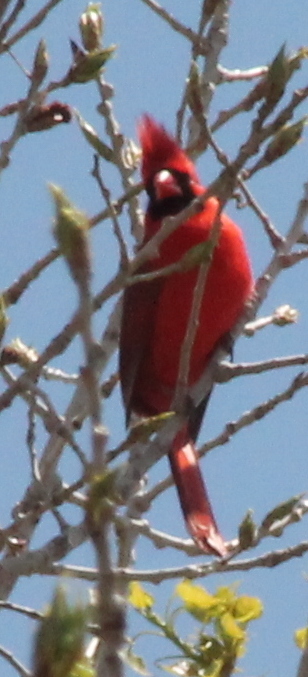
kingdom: Animalia
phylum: Chordata
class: Aves
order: Passeriformes
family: Cardinalidae
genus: Cardinalis
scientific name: Cardinalis cardinalis
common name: Northern cardinal
